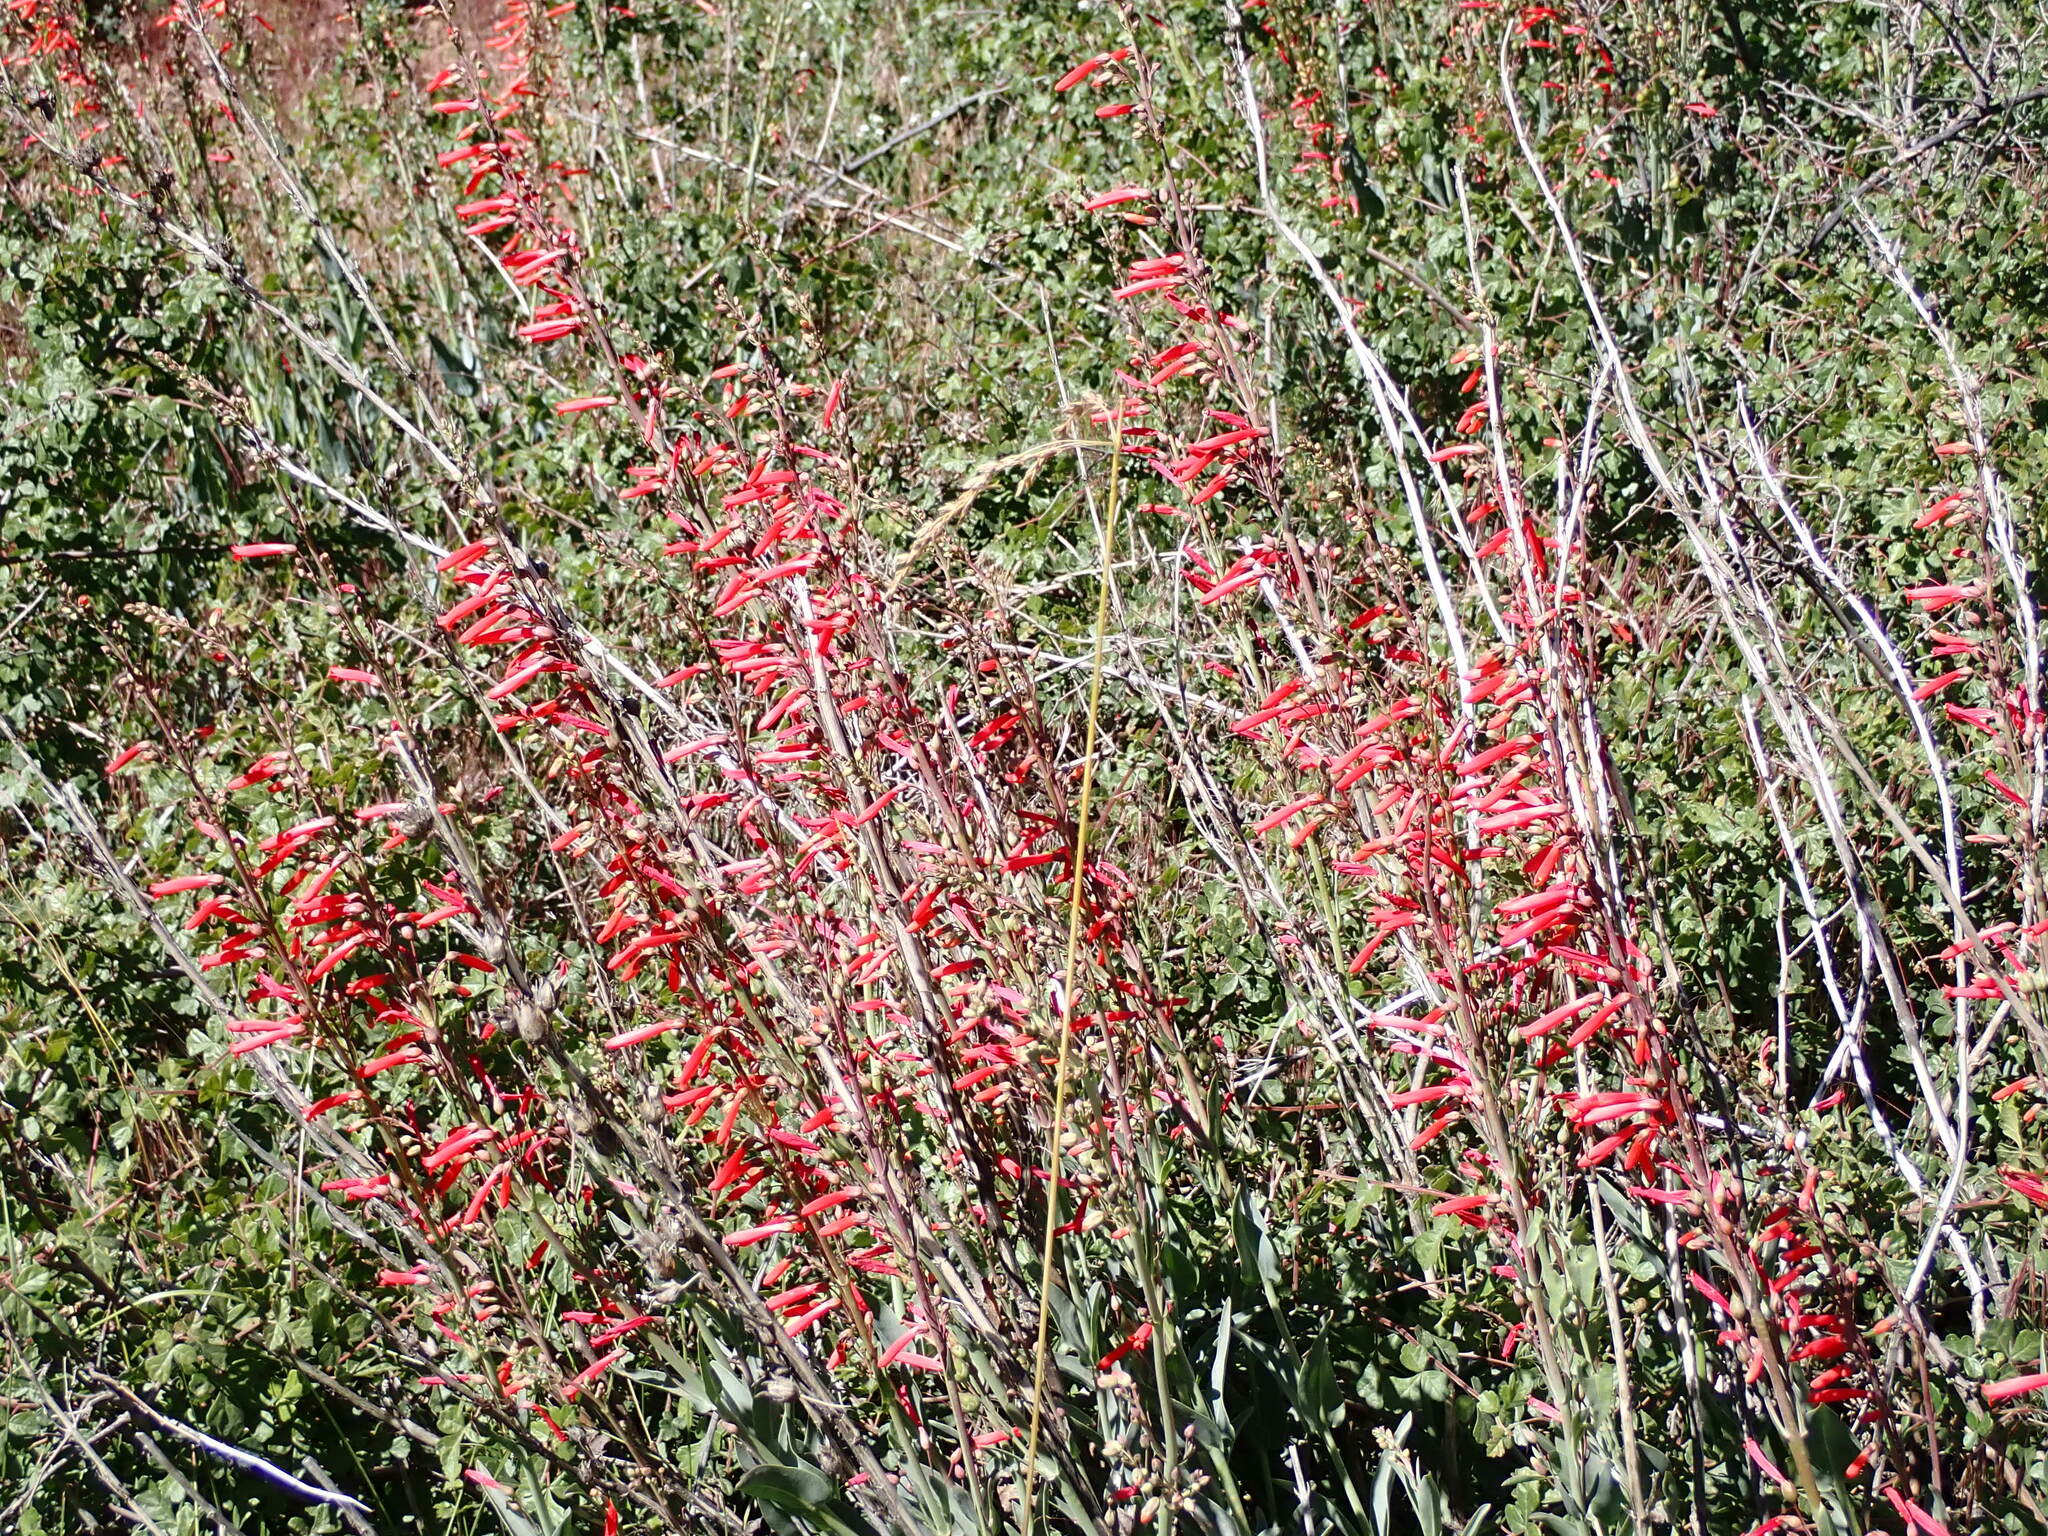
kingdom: Plantae
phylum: Tracheophyta
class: Magnoliopsida
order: Lamiales
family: Plantaginaceae
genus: Penstemon
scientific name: Penstemon centranthifolius
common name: Scarlet bugler
